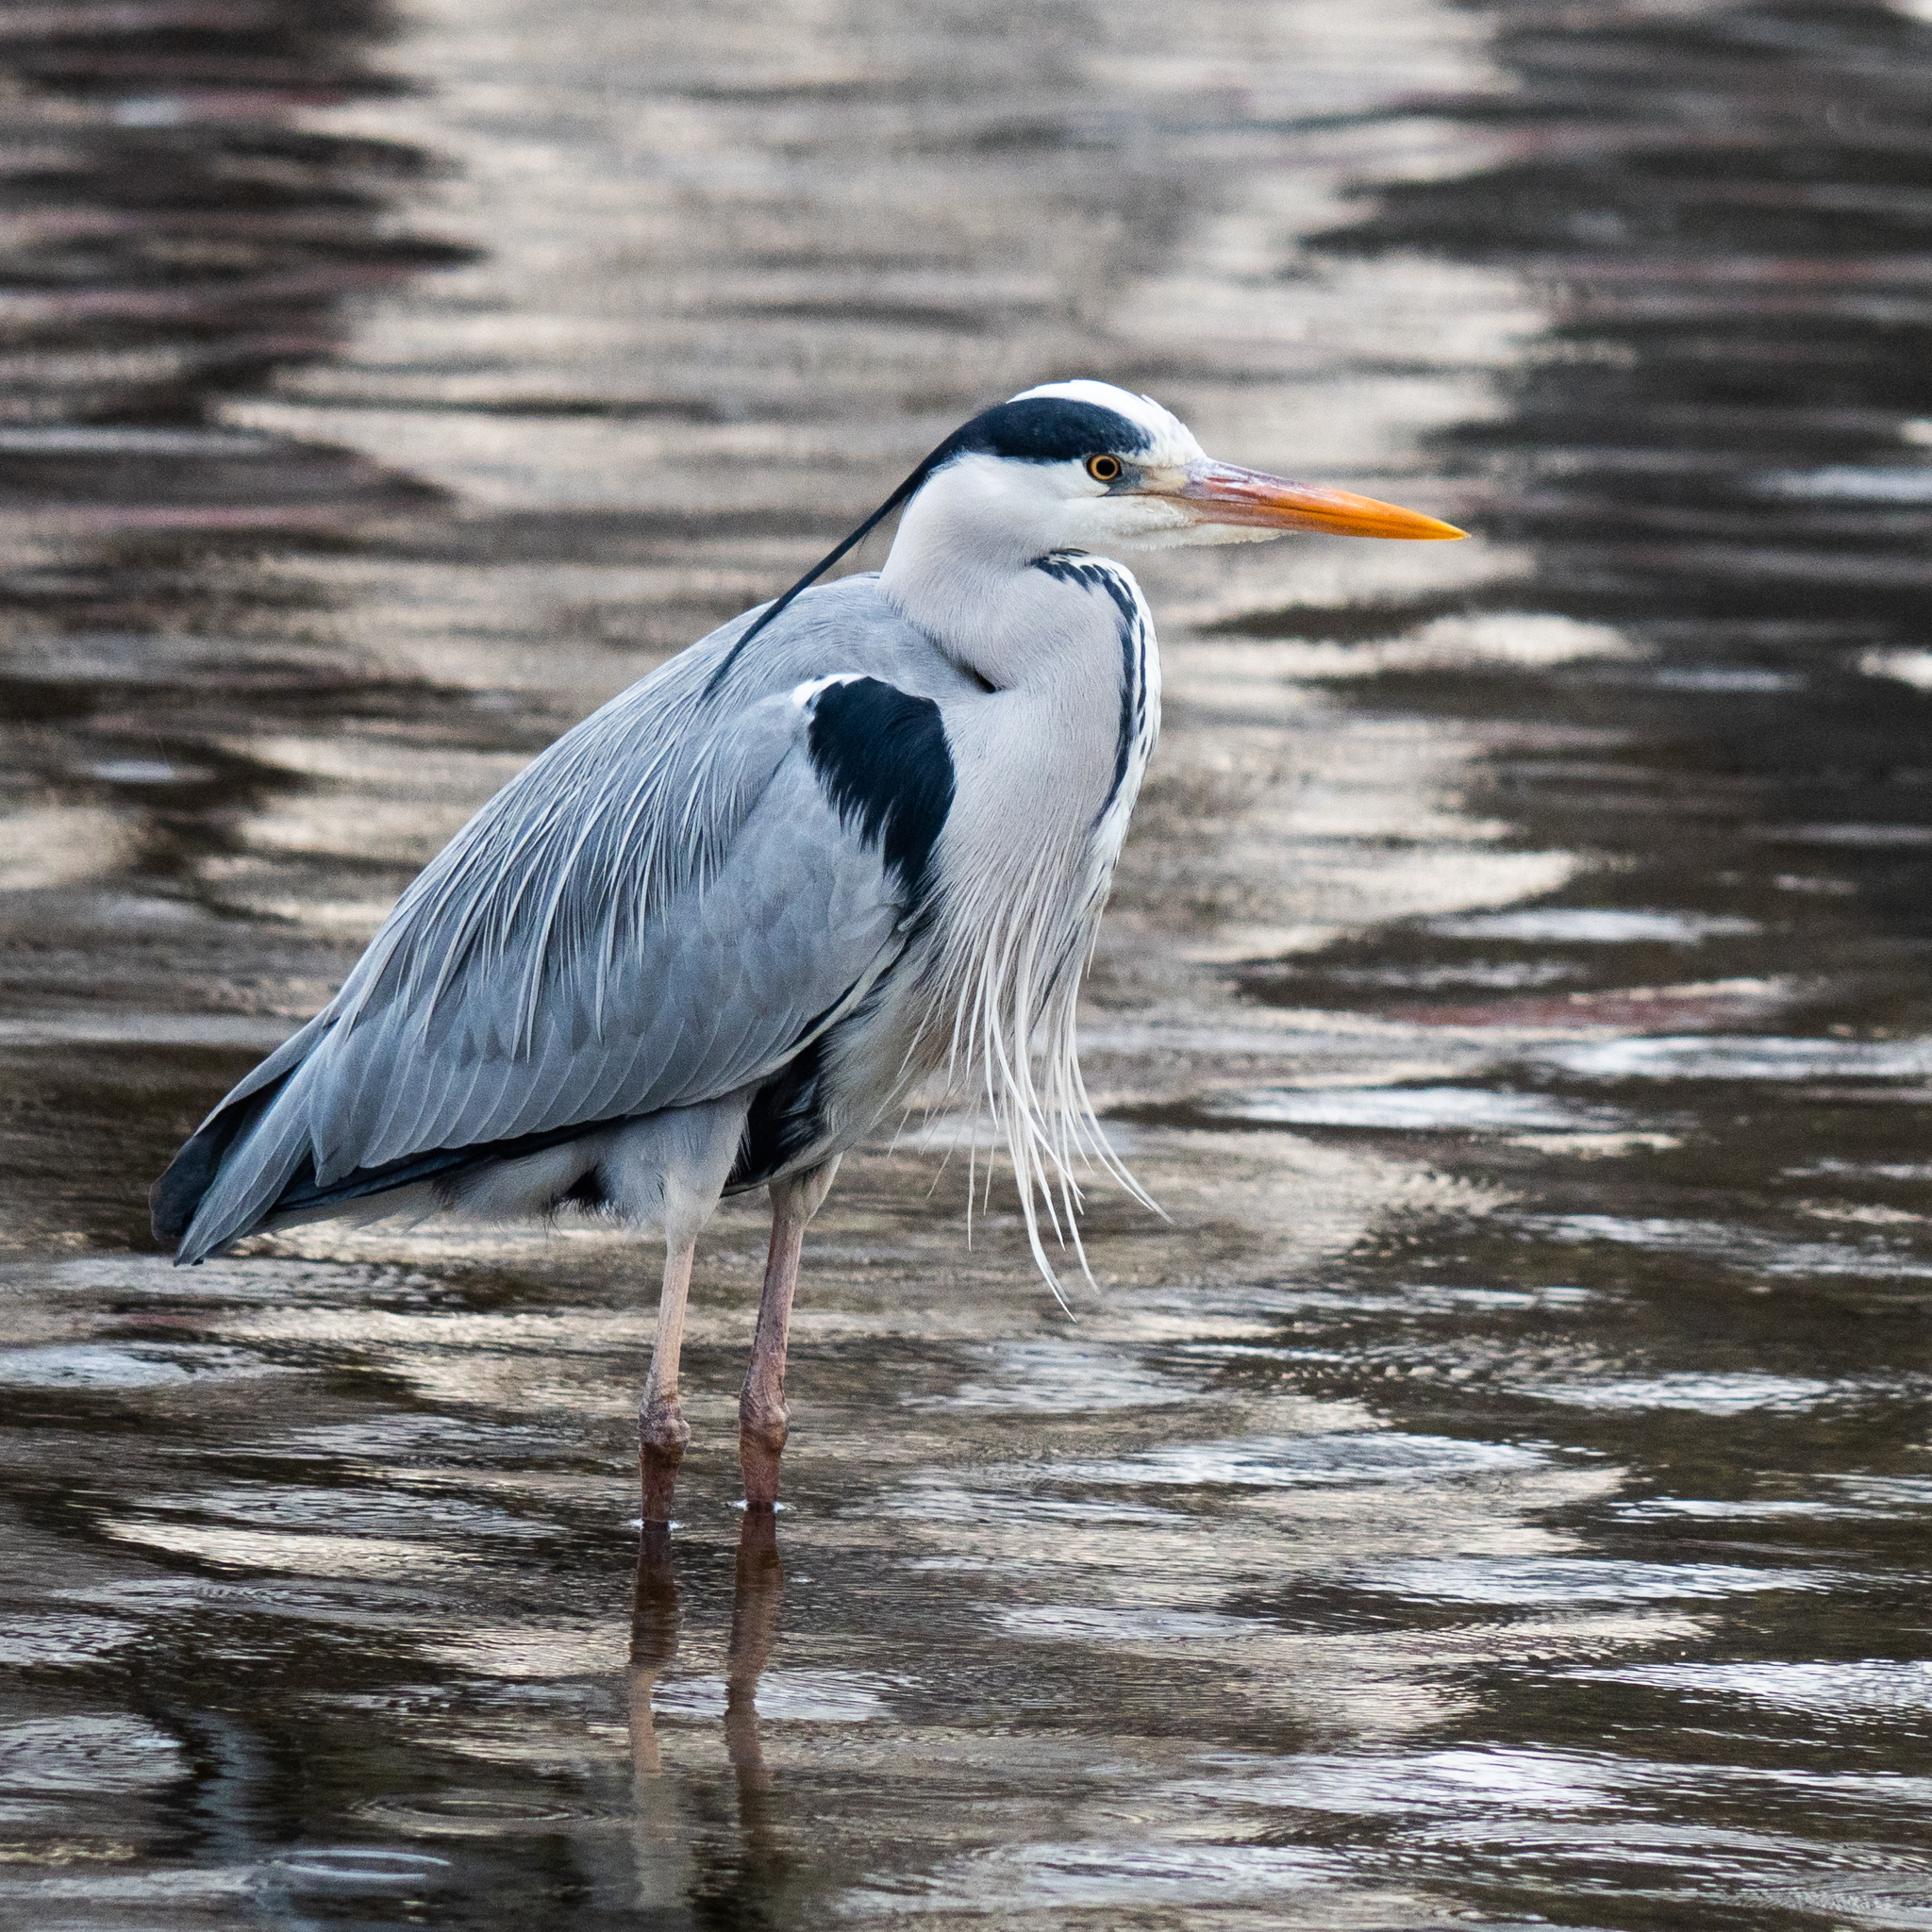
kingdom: Animalia
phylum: Chordata
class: Aves
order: Pelecaniformes
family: Ardeidae
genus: Ardea
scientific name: Ardea cinerea
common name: Grey heron
